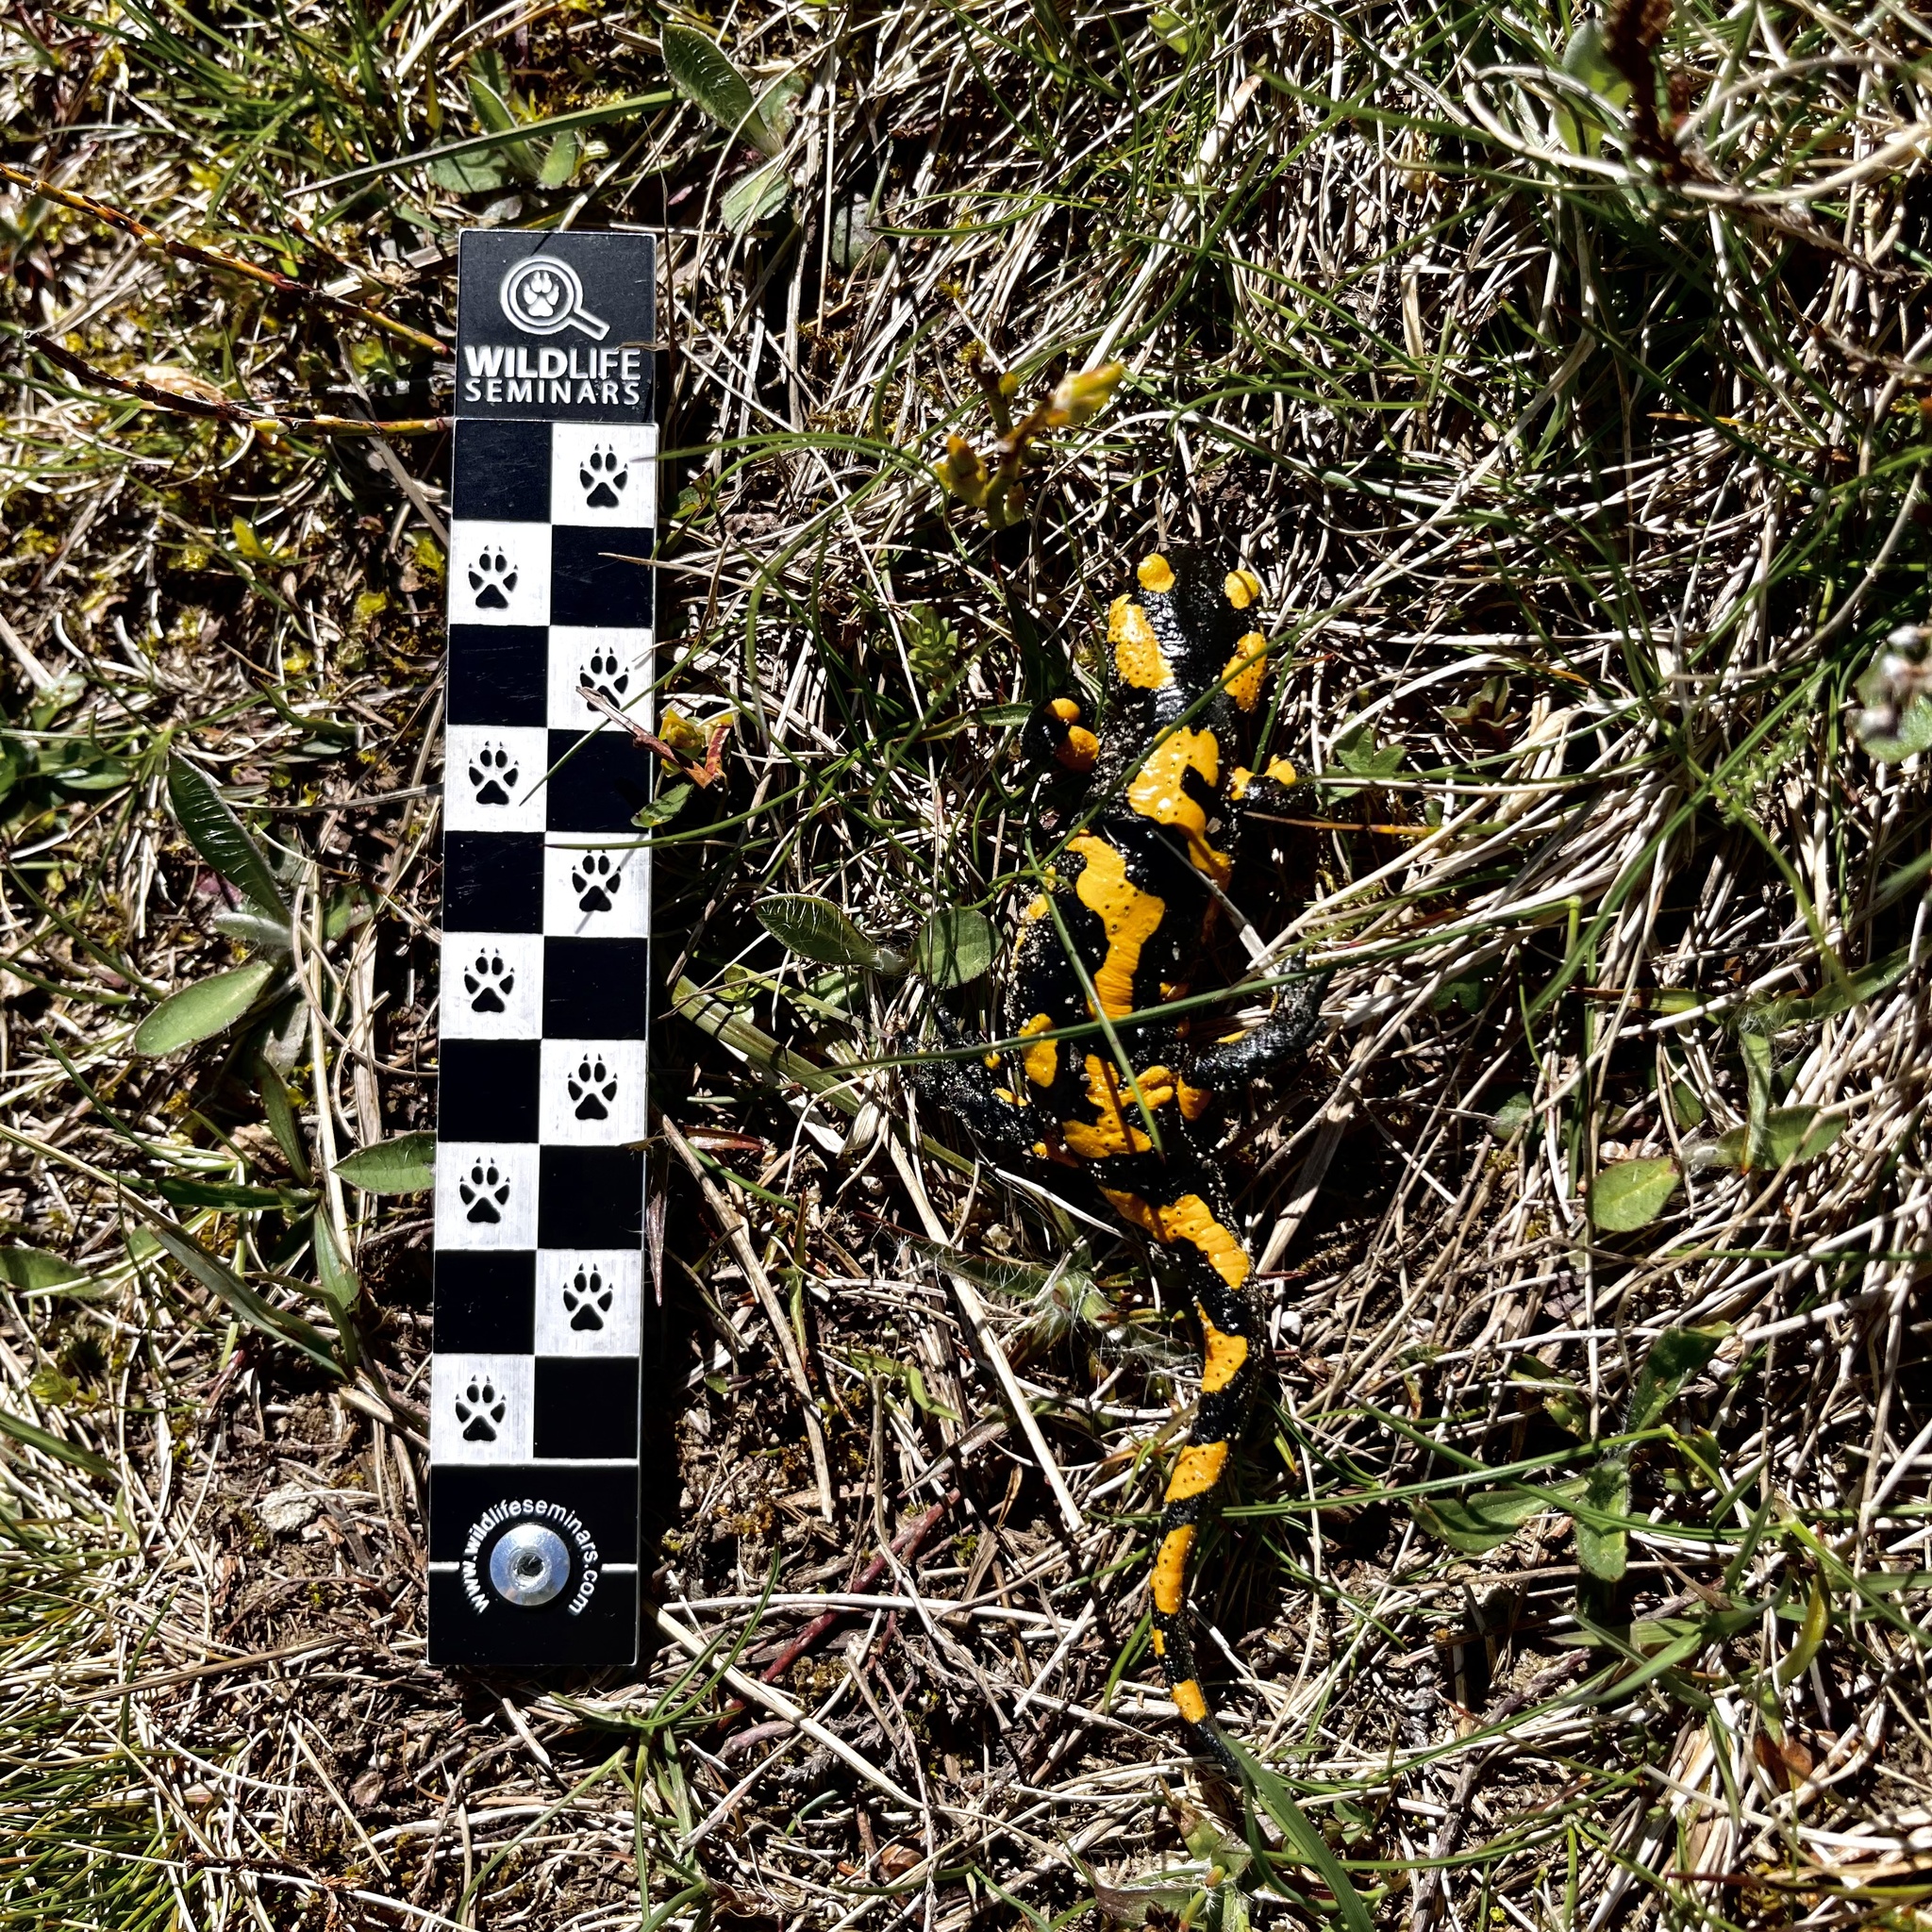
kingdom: Animalia
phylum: Chordata
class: Amphibia
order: Caudata
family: Salamandridae
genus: Salamandra
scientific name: Salamandra salamandra
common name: Fire salamander
